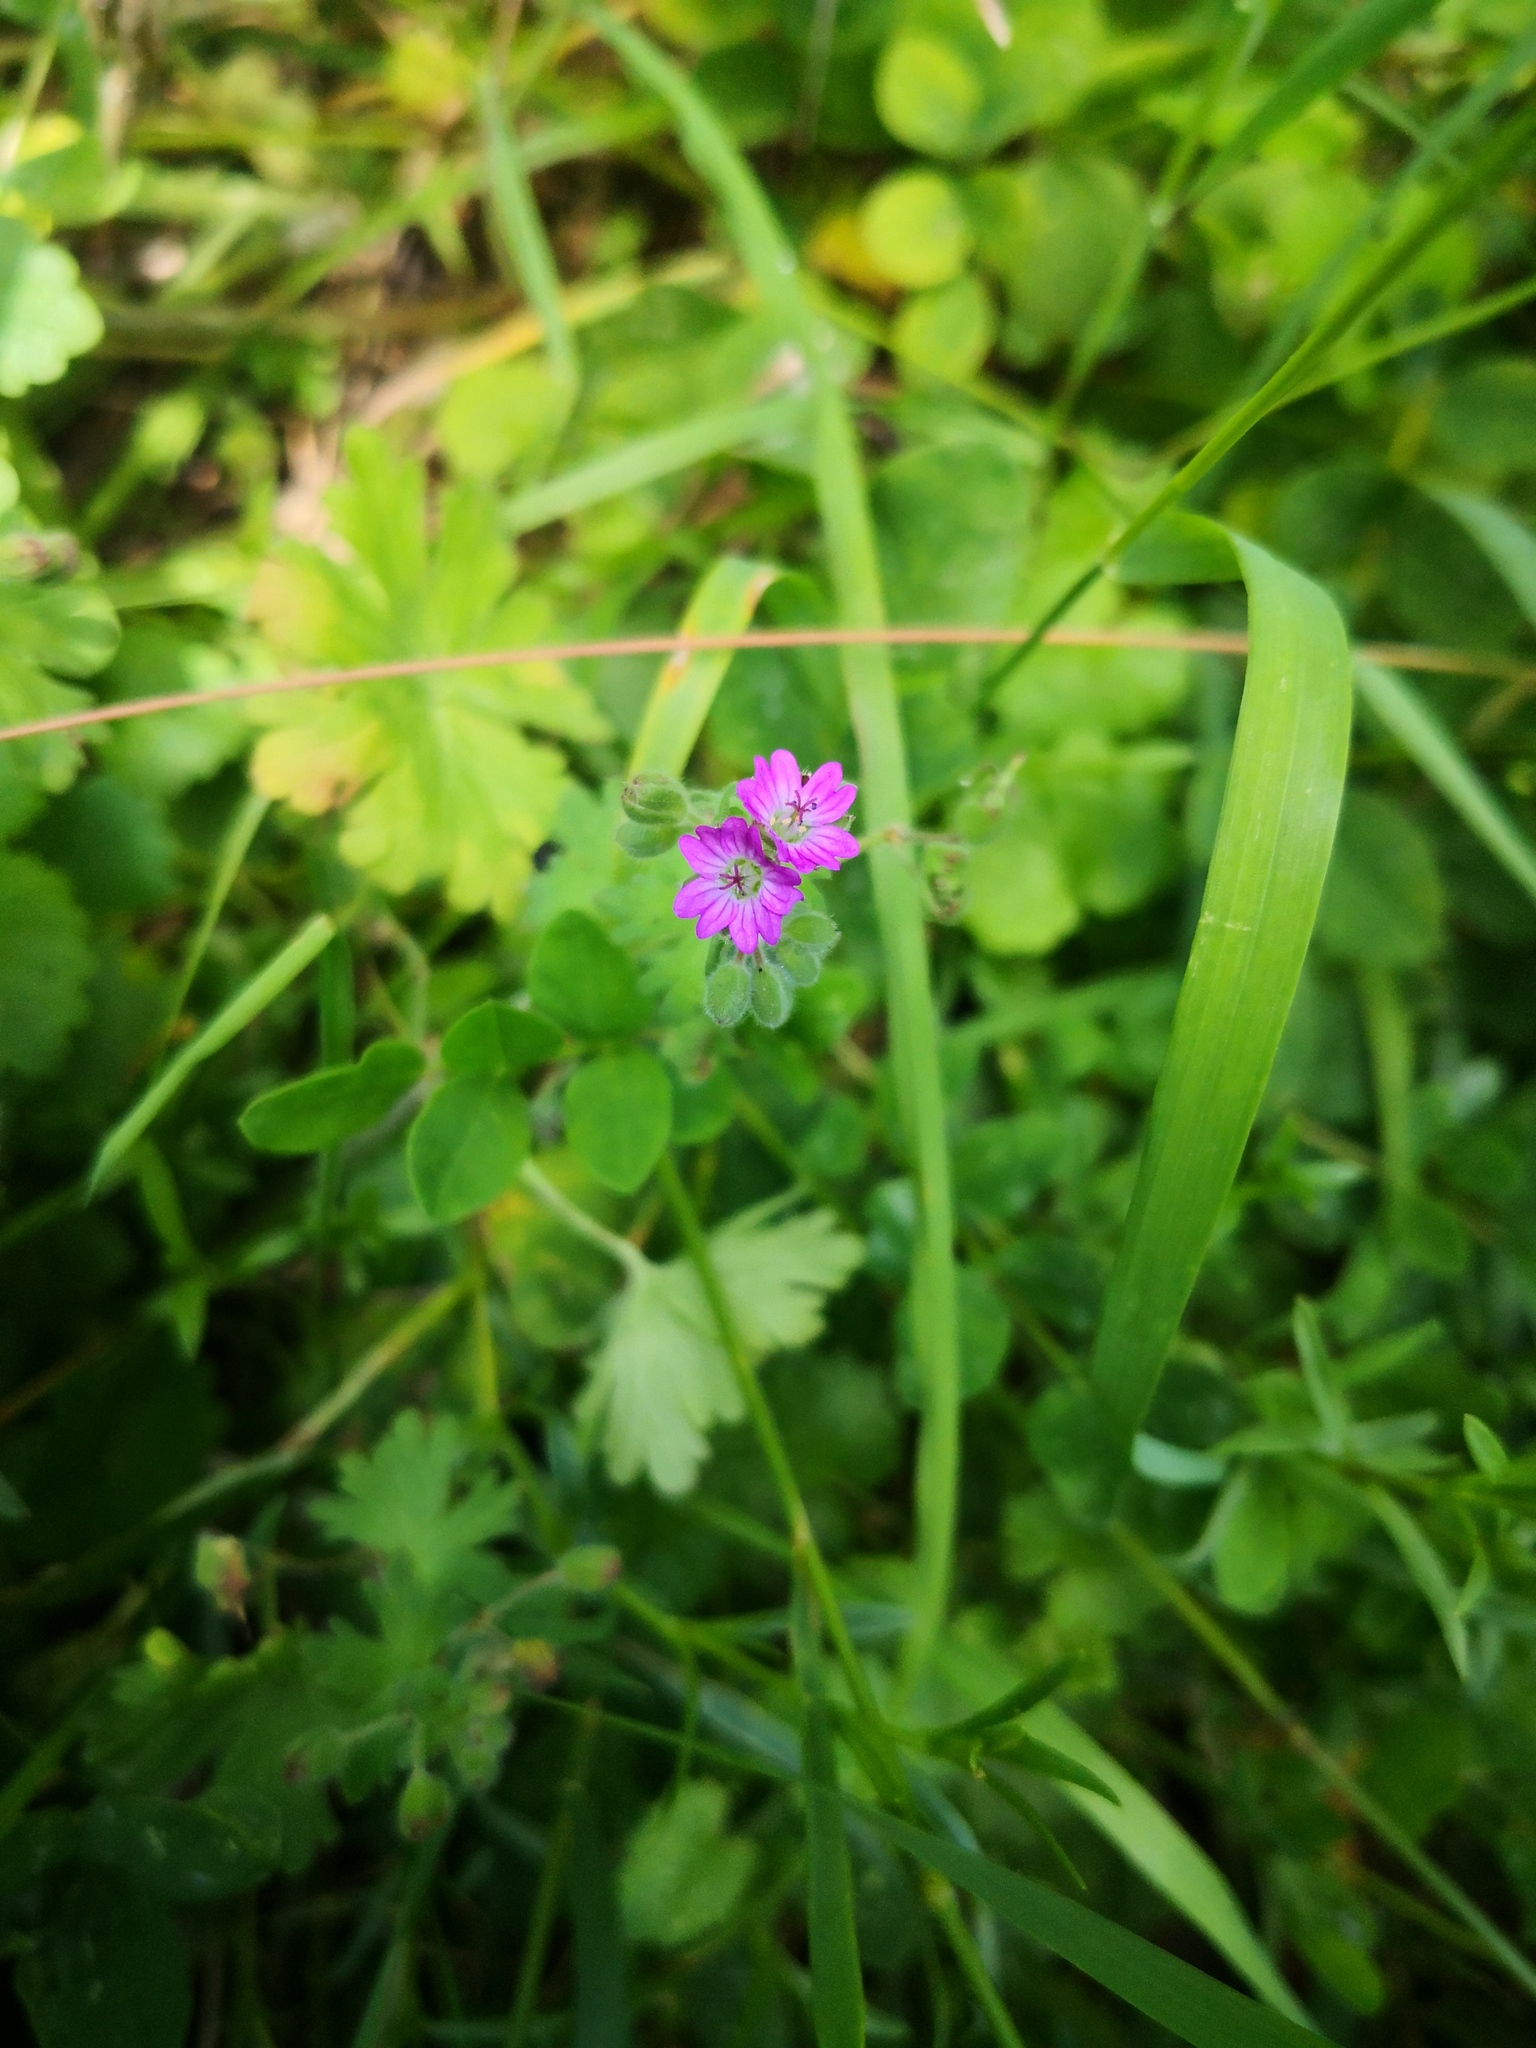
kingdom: Plantae
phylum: Tracheophyta
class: Magnoliopsida
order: Geraniales
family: Geraniaceae
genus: Geranium
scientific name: Geranium molle
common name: Dove's-foot crane's-bill
